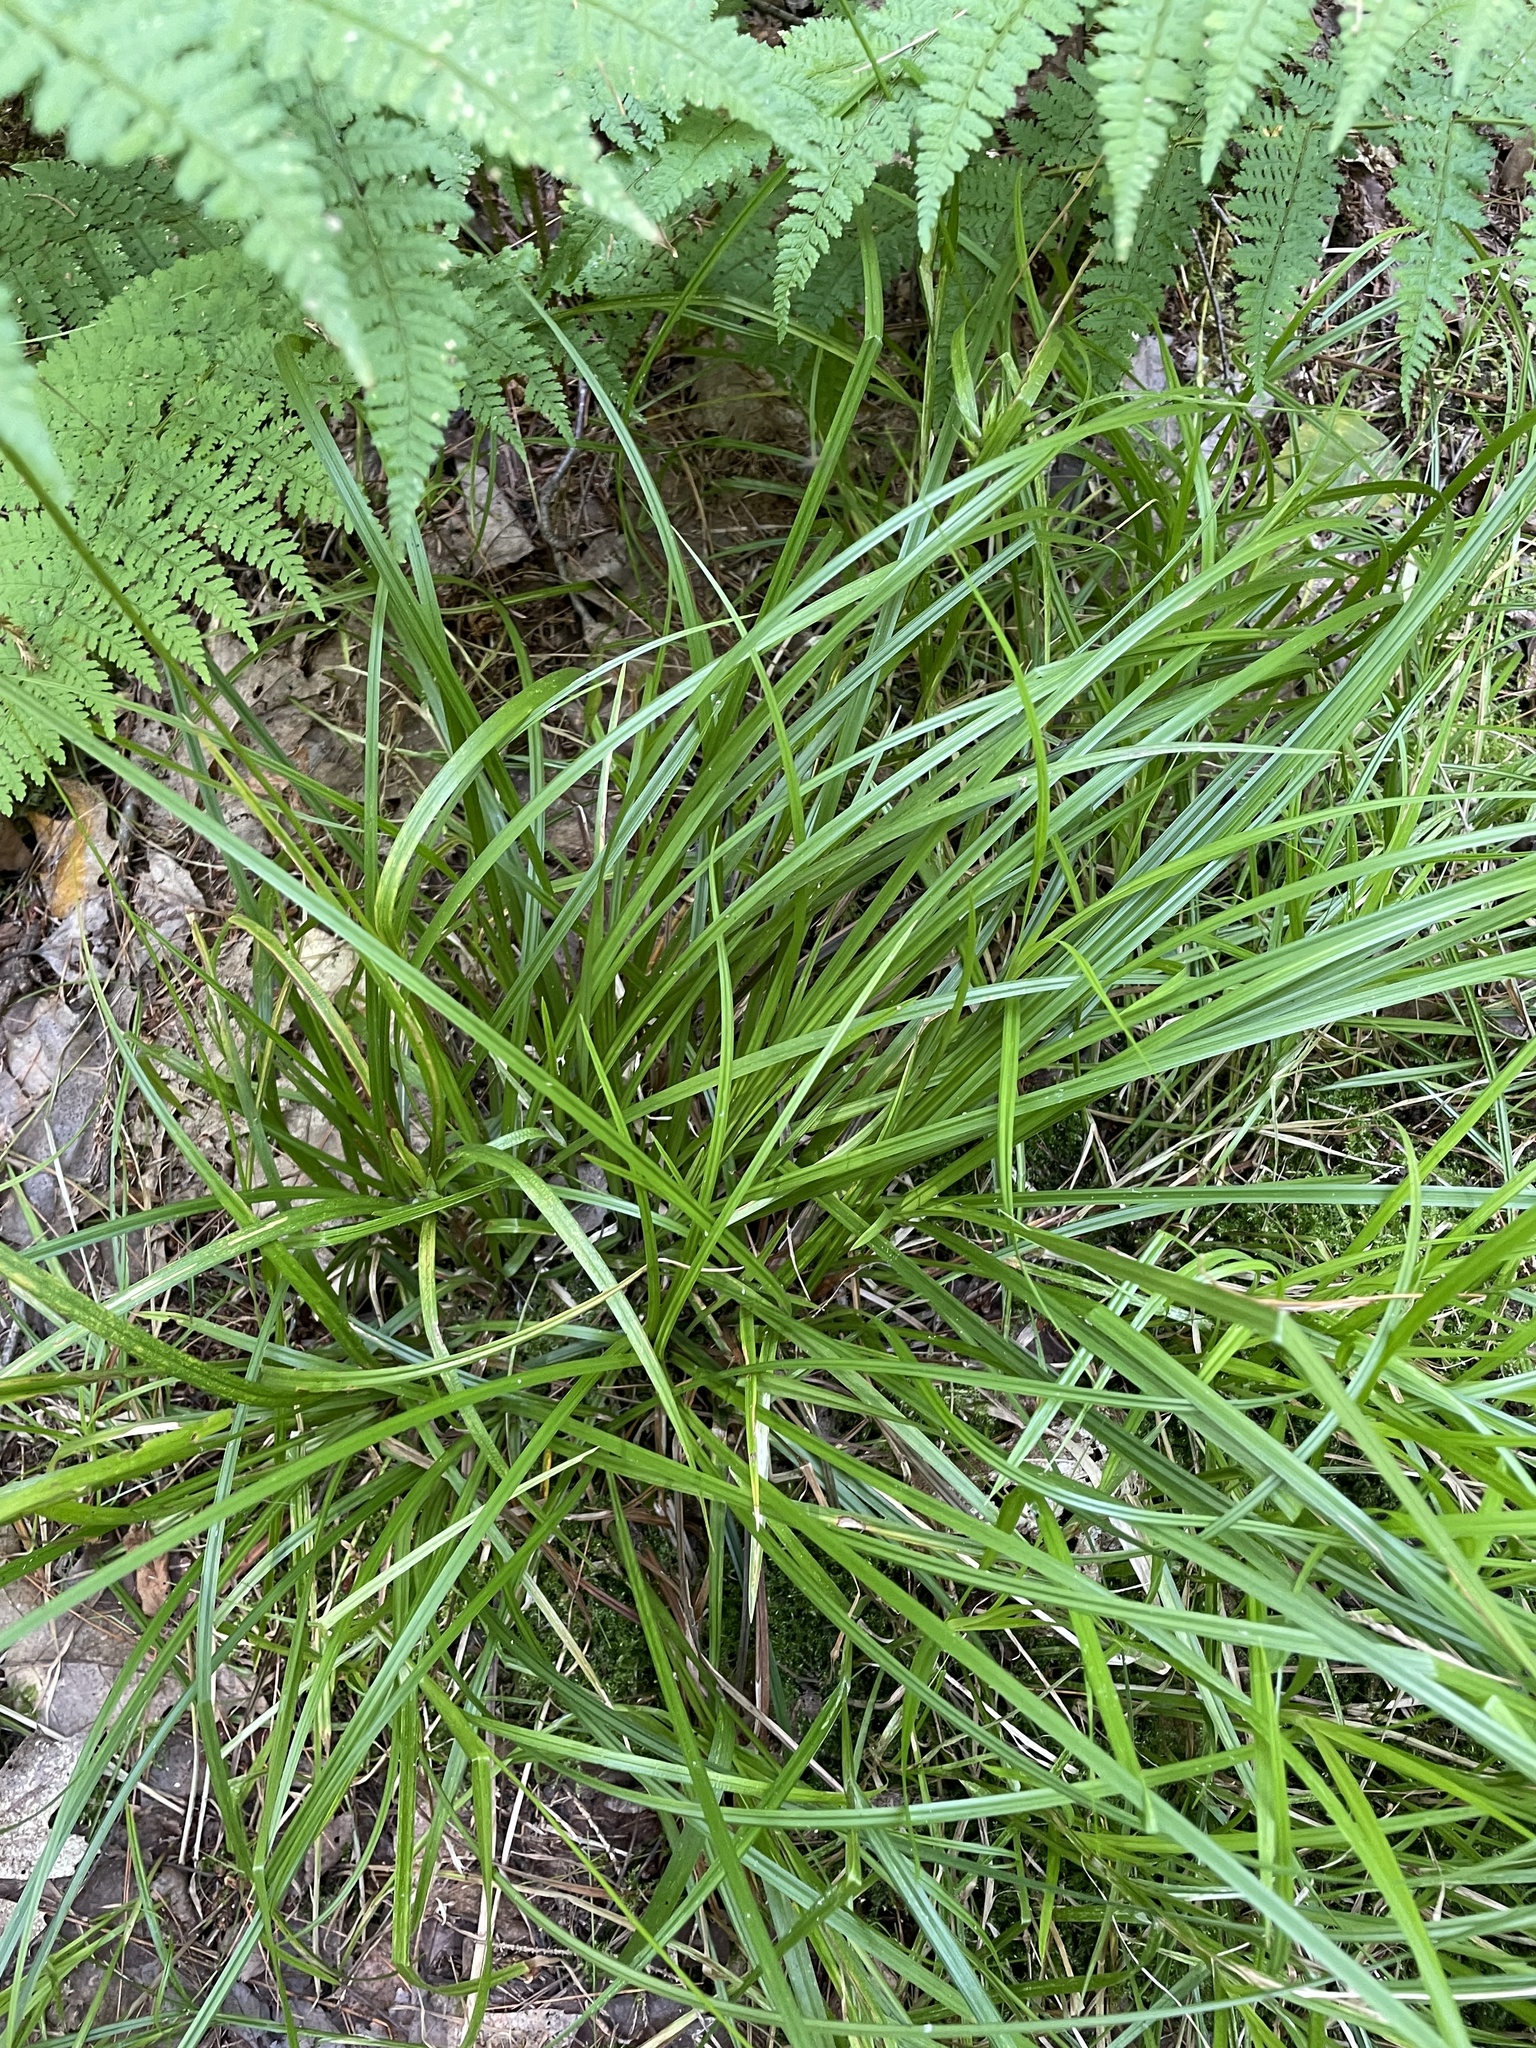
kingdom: Plantae
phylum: Tracheophyta
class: Liliopsida
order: Poales
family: Cyperaceae
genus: Carex
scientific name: Carex intumescens
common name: Greater bladder sedge
